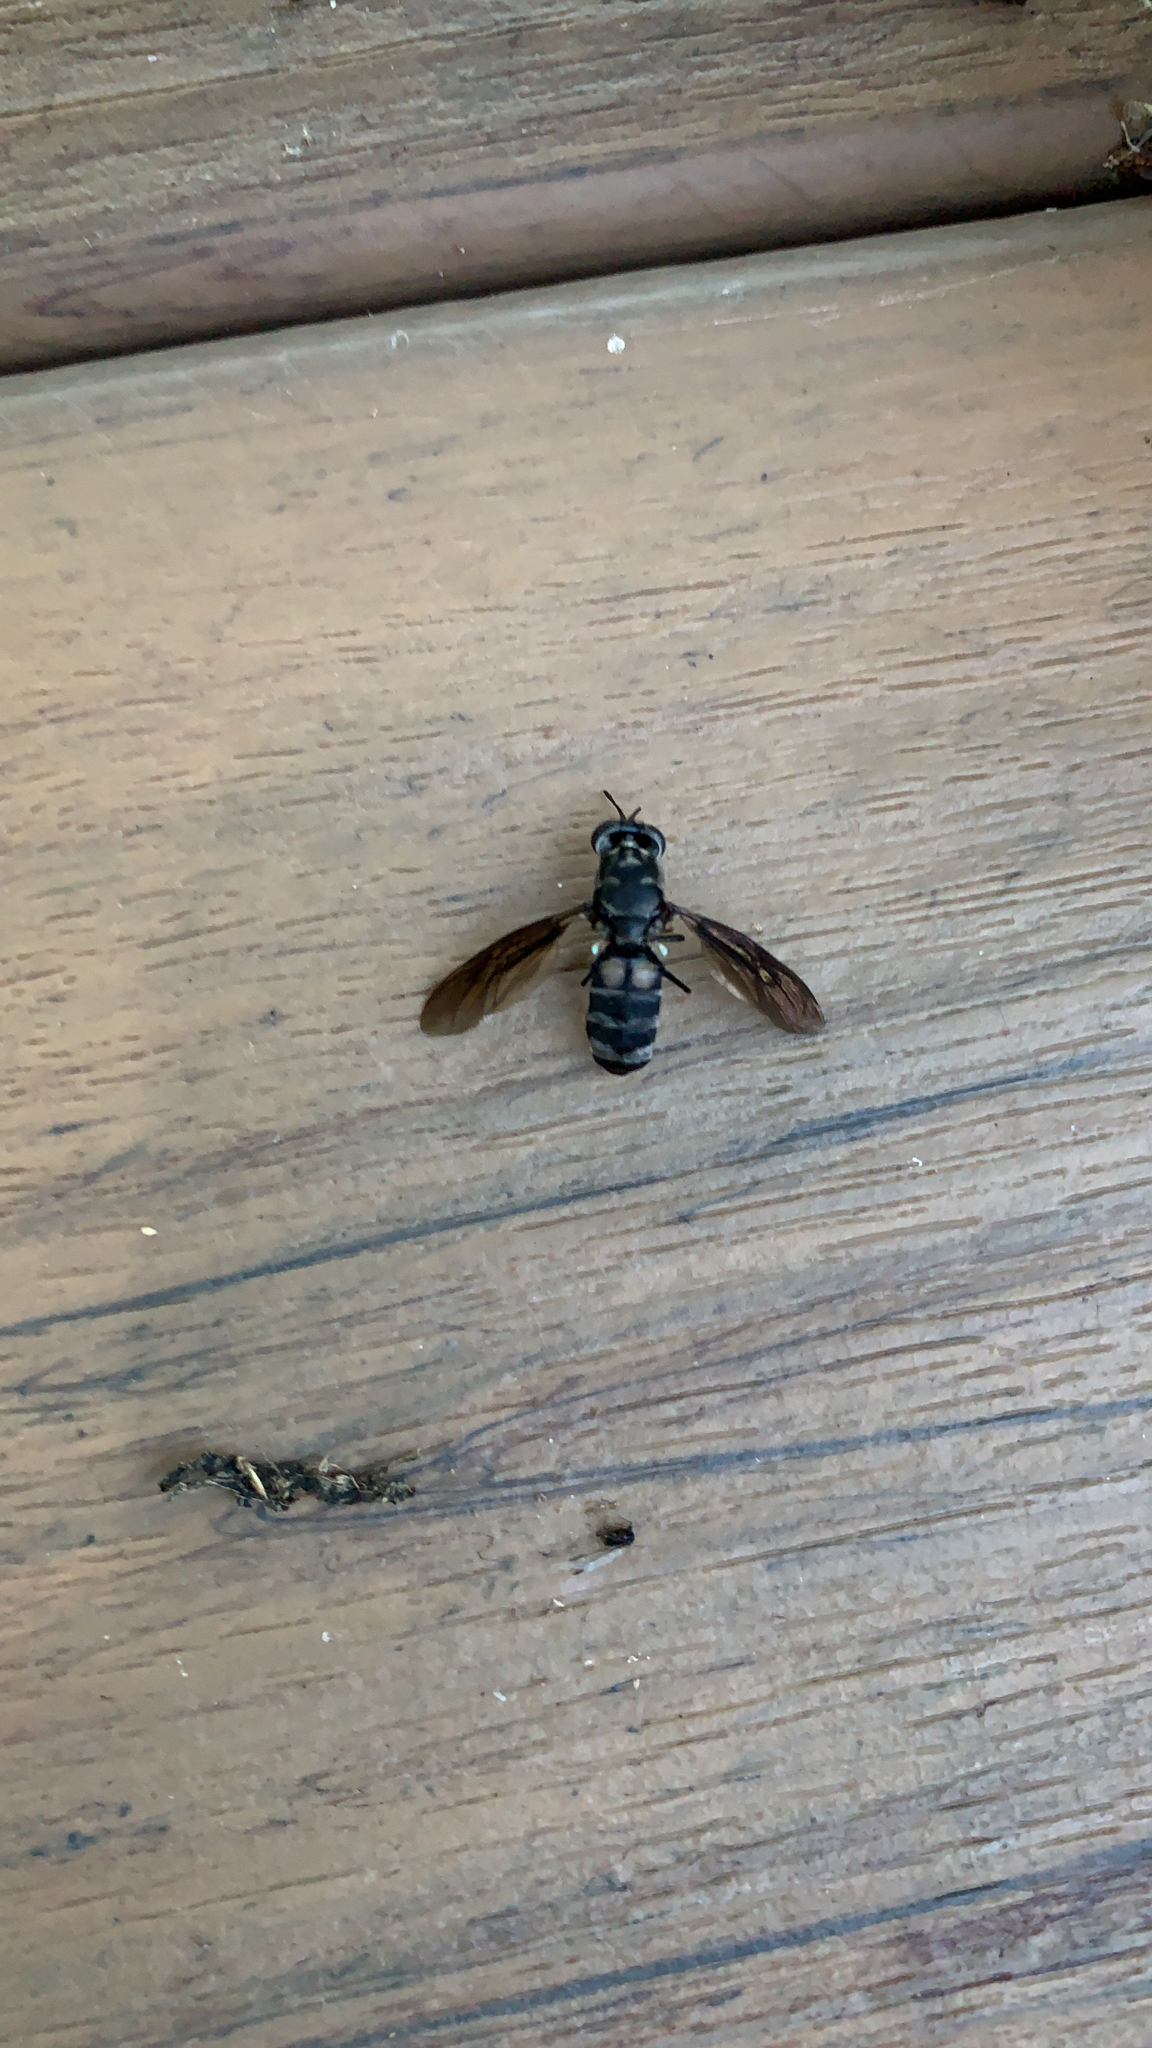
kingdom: Animalia
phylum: Arthropoda
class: Insecta
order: Diptera
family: Stratiomyidae
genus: Hermetia
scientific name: Hermetia illucens
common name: Black soldier fly
